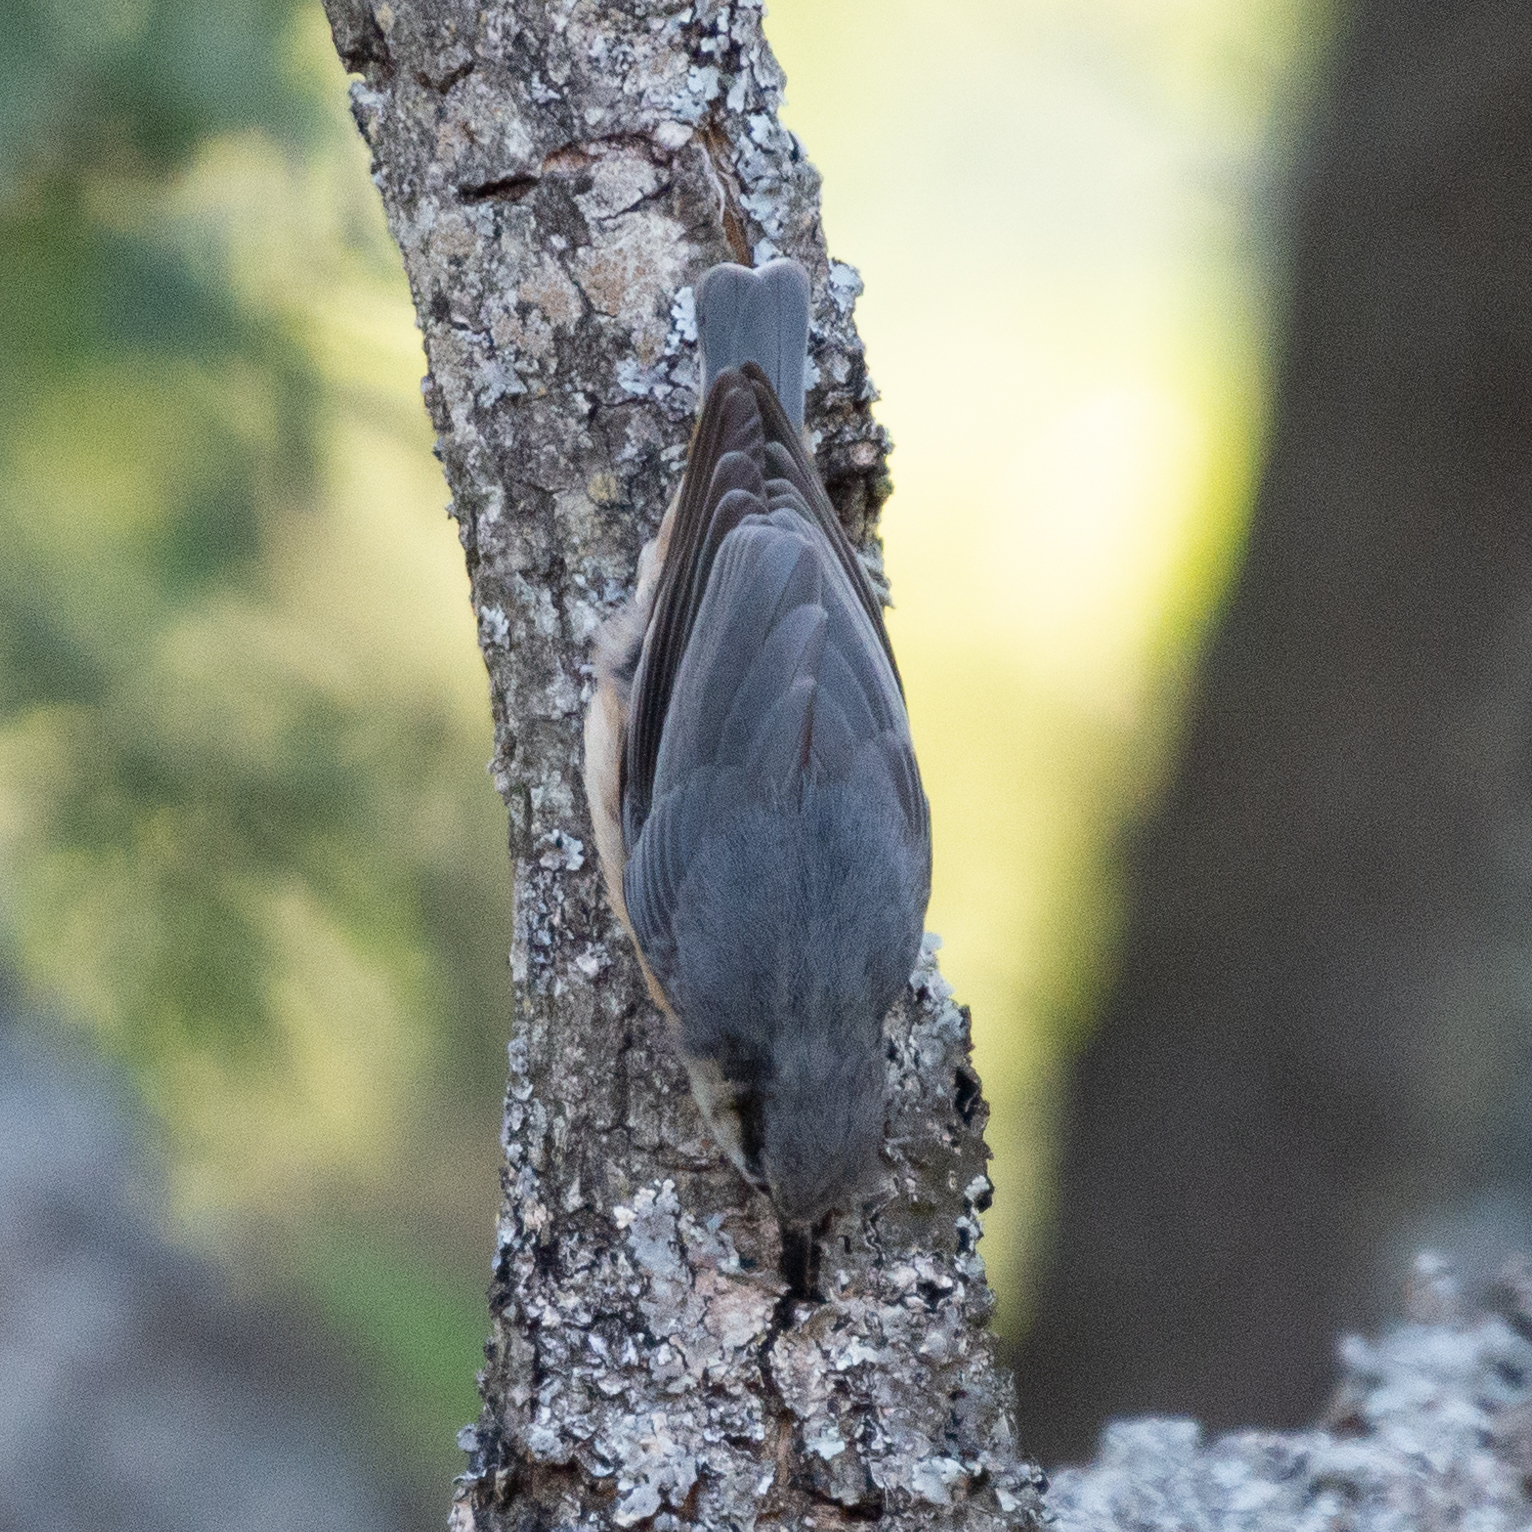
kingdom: Animalia
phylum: Chordata
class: Aves
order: Passeriformes
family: Sittidae
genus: Sitta
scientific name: Sitta europaea
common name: Eurasian nuthatch
